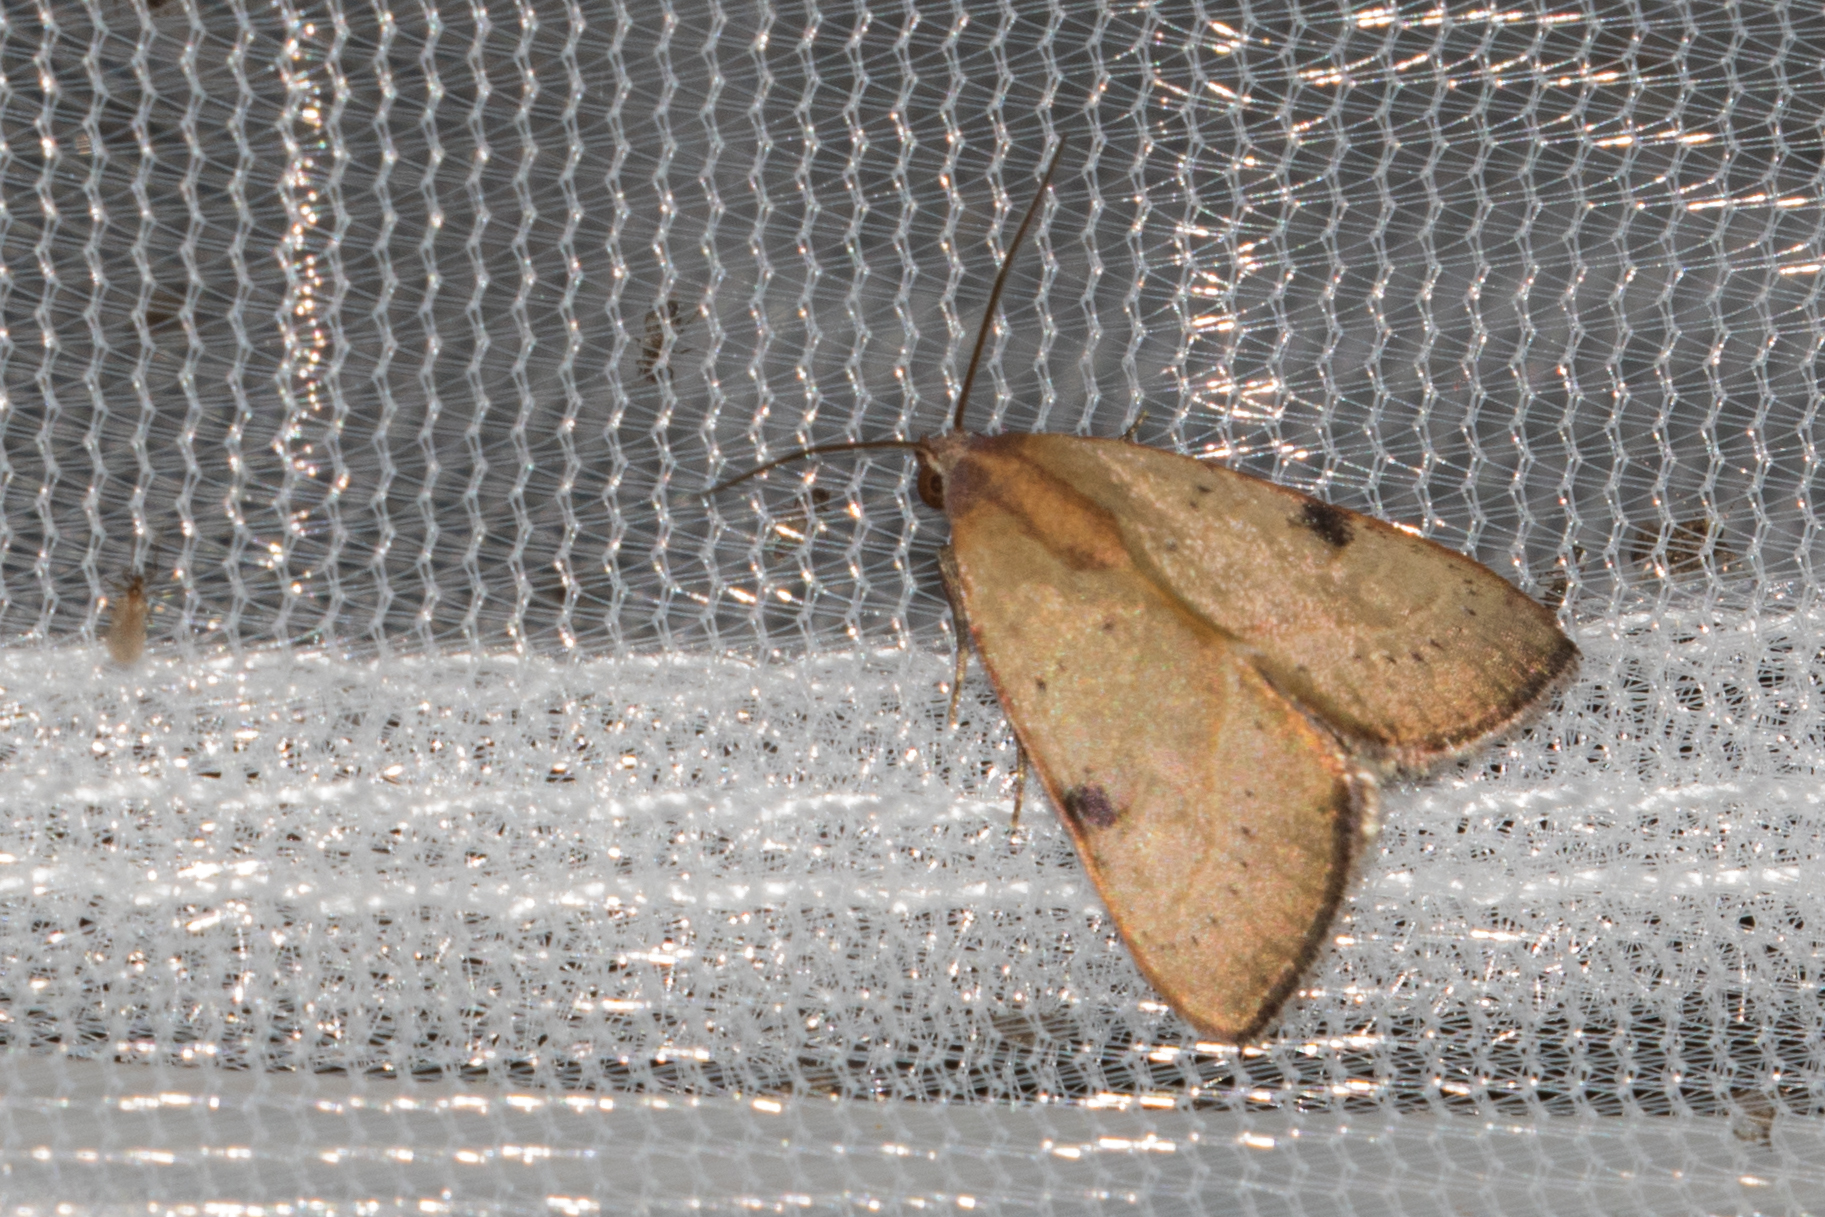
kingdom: Animalia
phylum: Arthropoda
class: Insecta
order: Lepidoptera
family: Noctuidae
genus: Galgula
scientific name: Galgula partita
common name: Wedgeling
